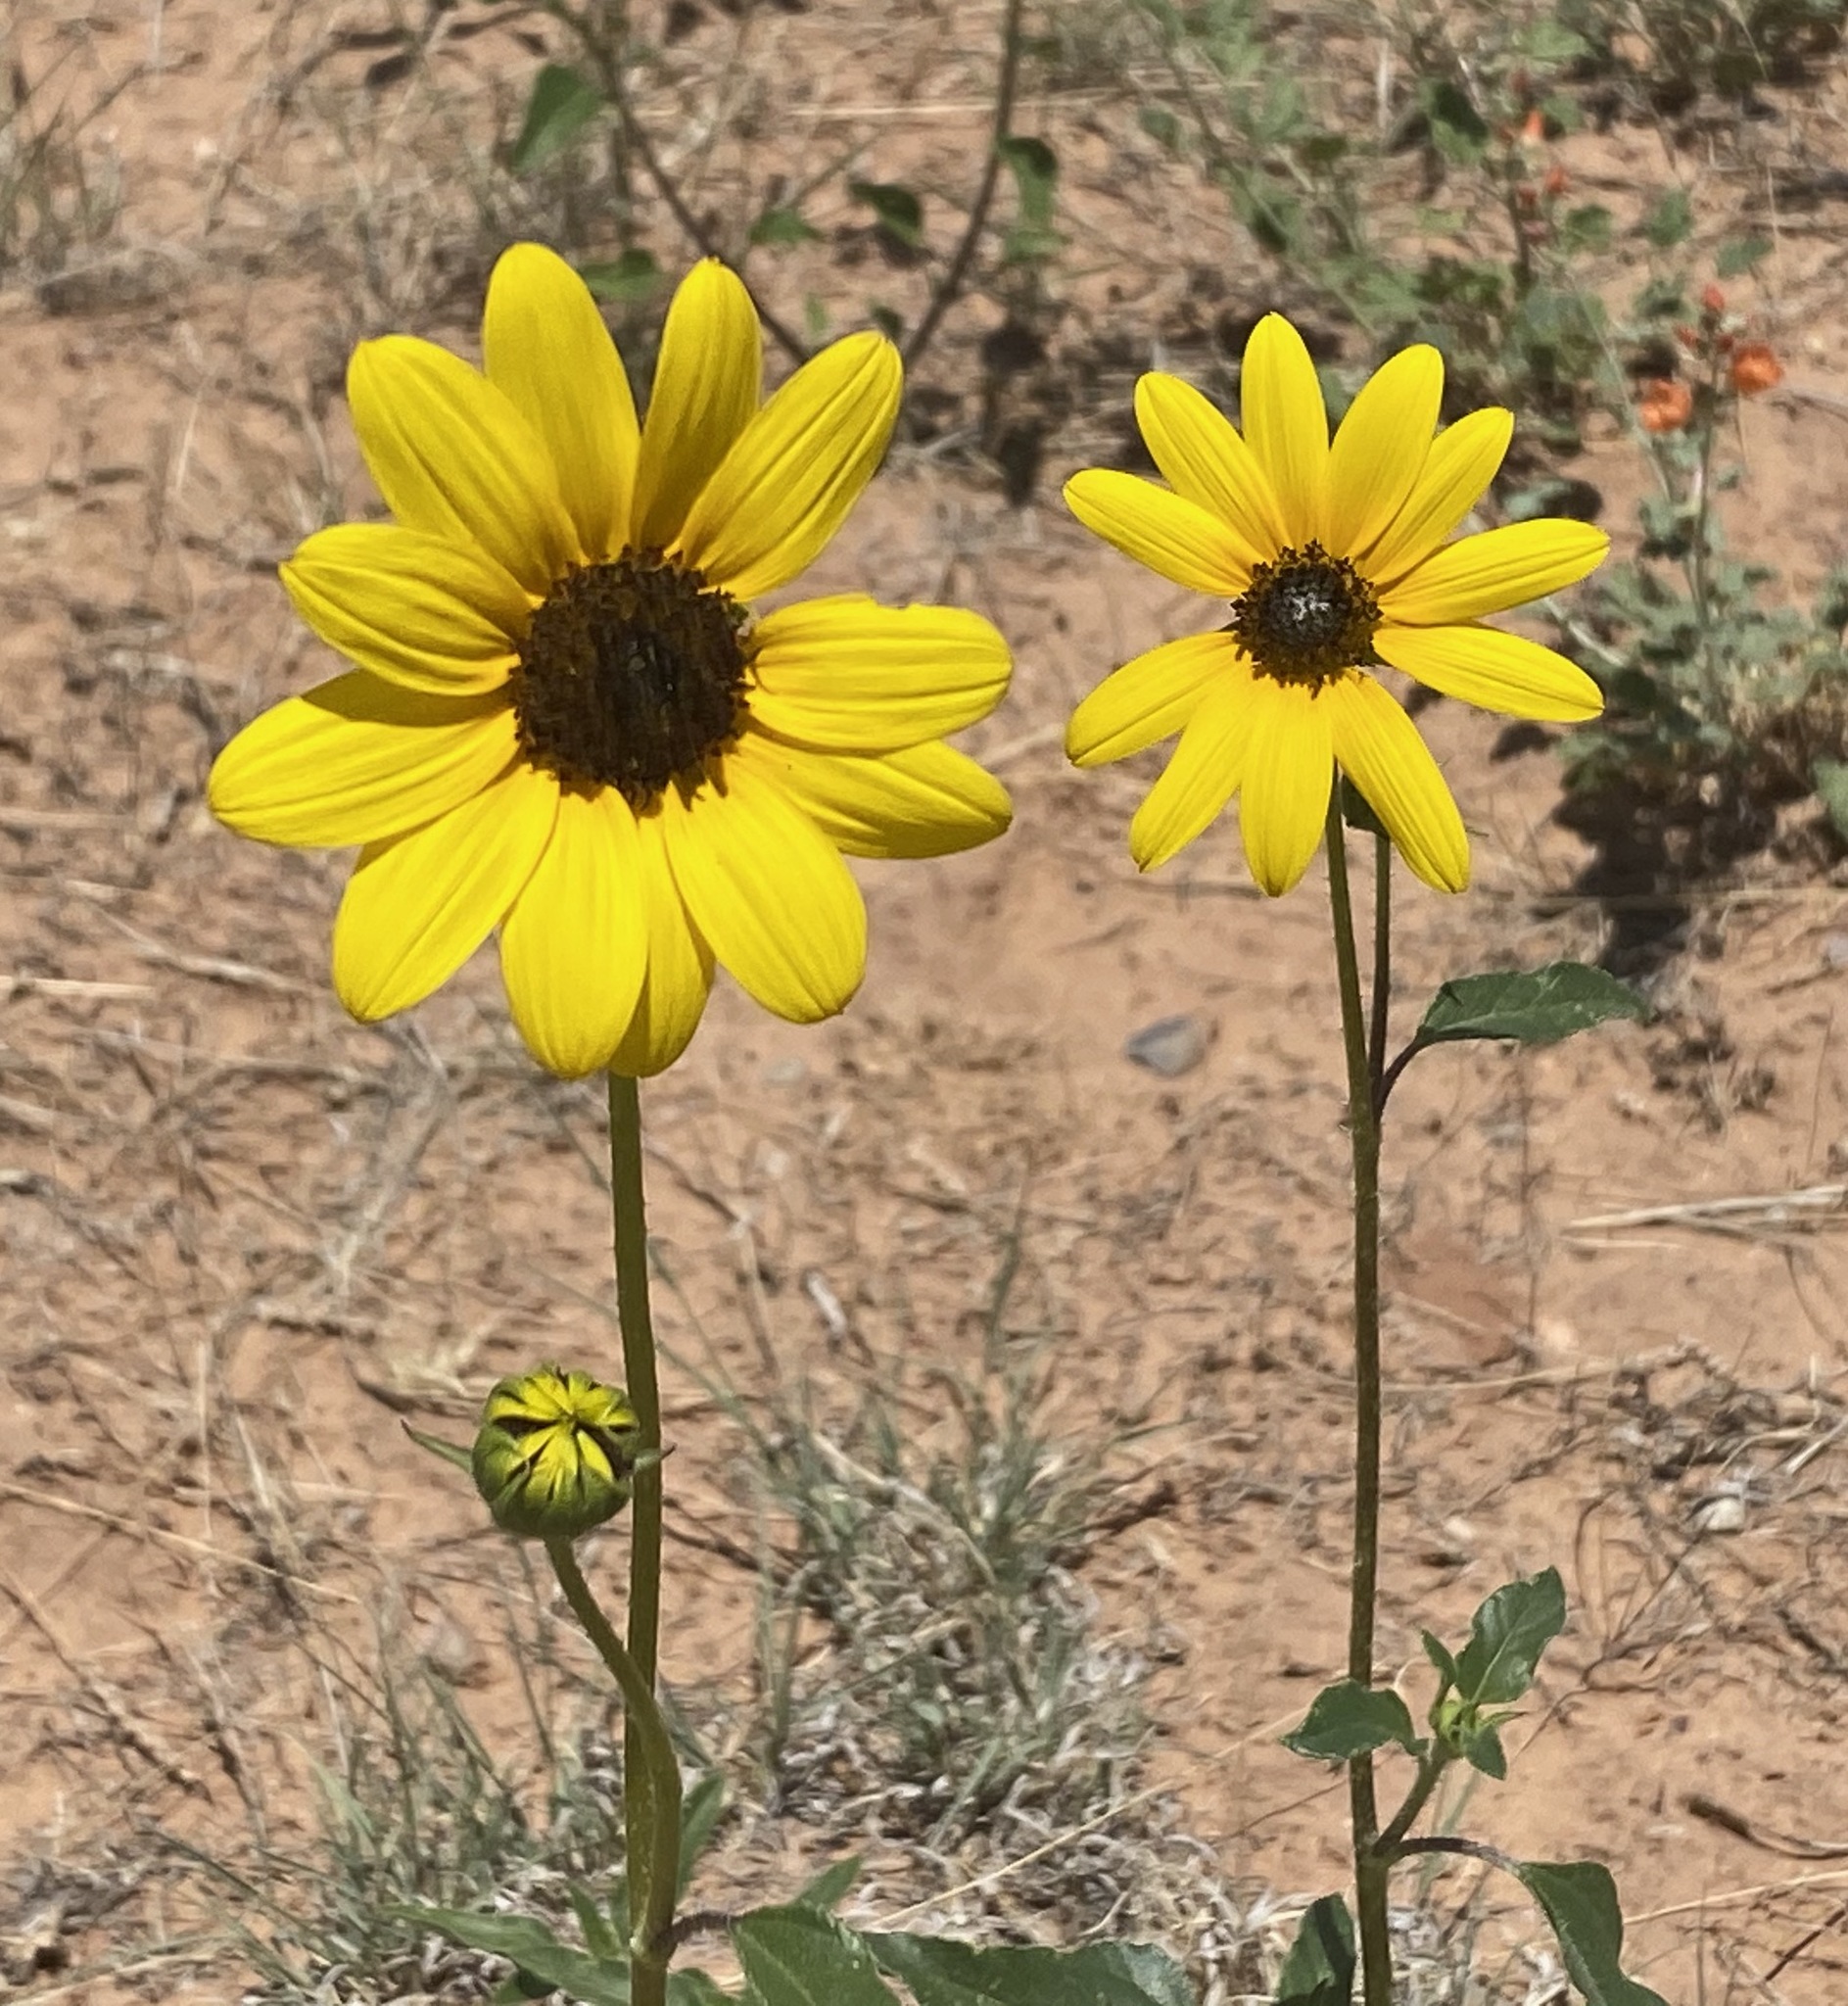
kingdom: Plantae
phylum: Tracheophyta
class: Magnoliopsida
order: Asterales
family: Asteraceae
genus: Helianthus
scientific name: Helianthus petiolaris
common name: Lesser sunflower
